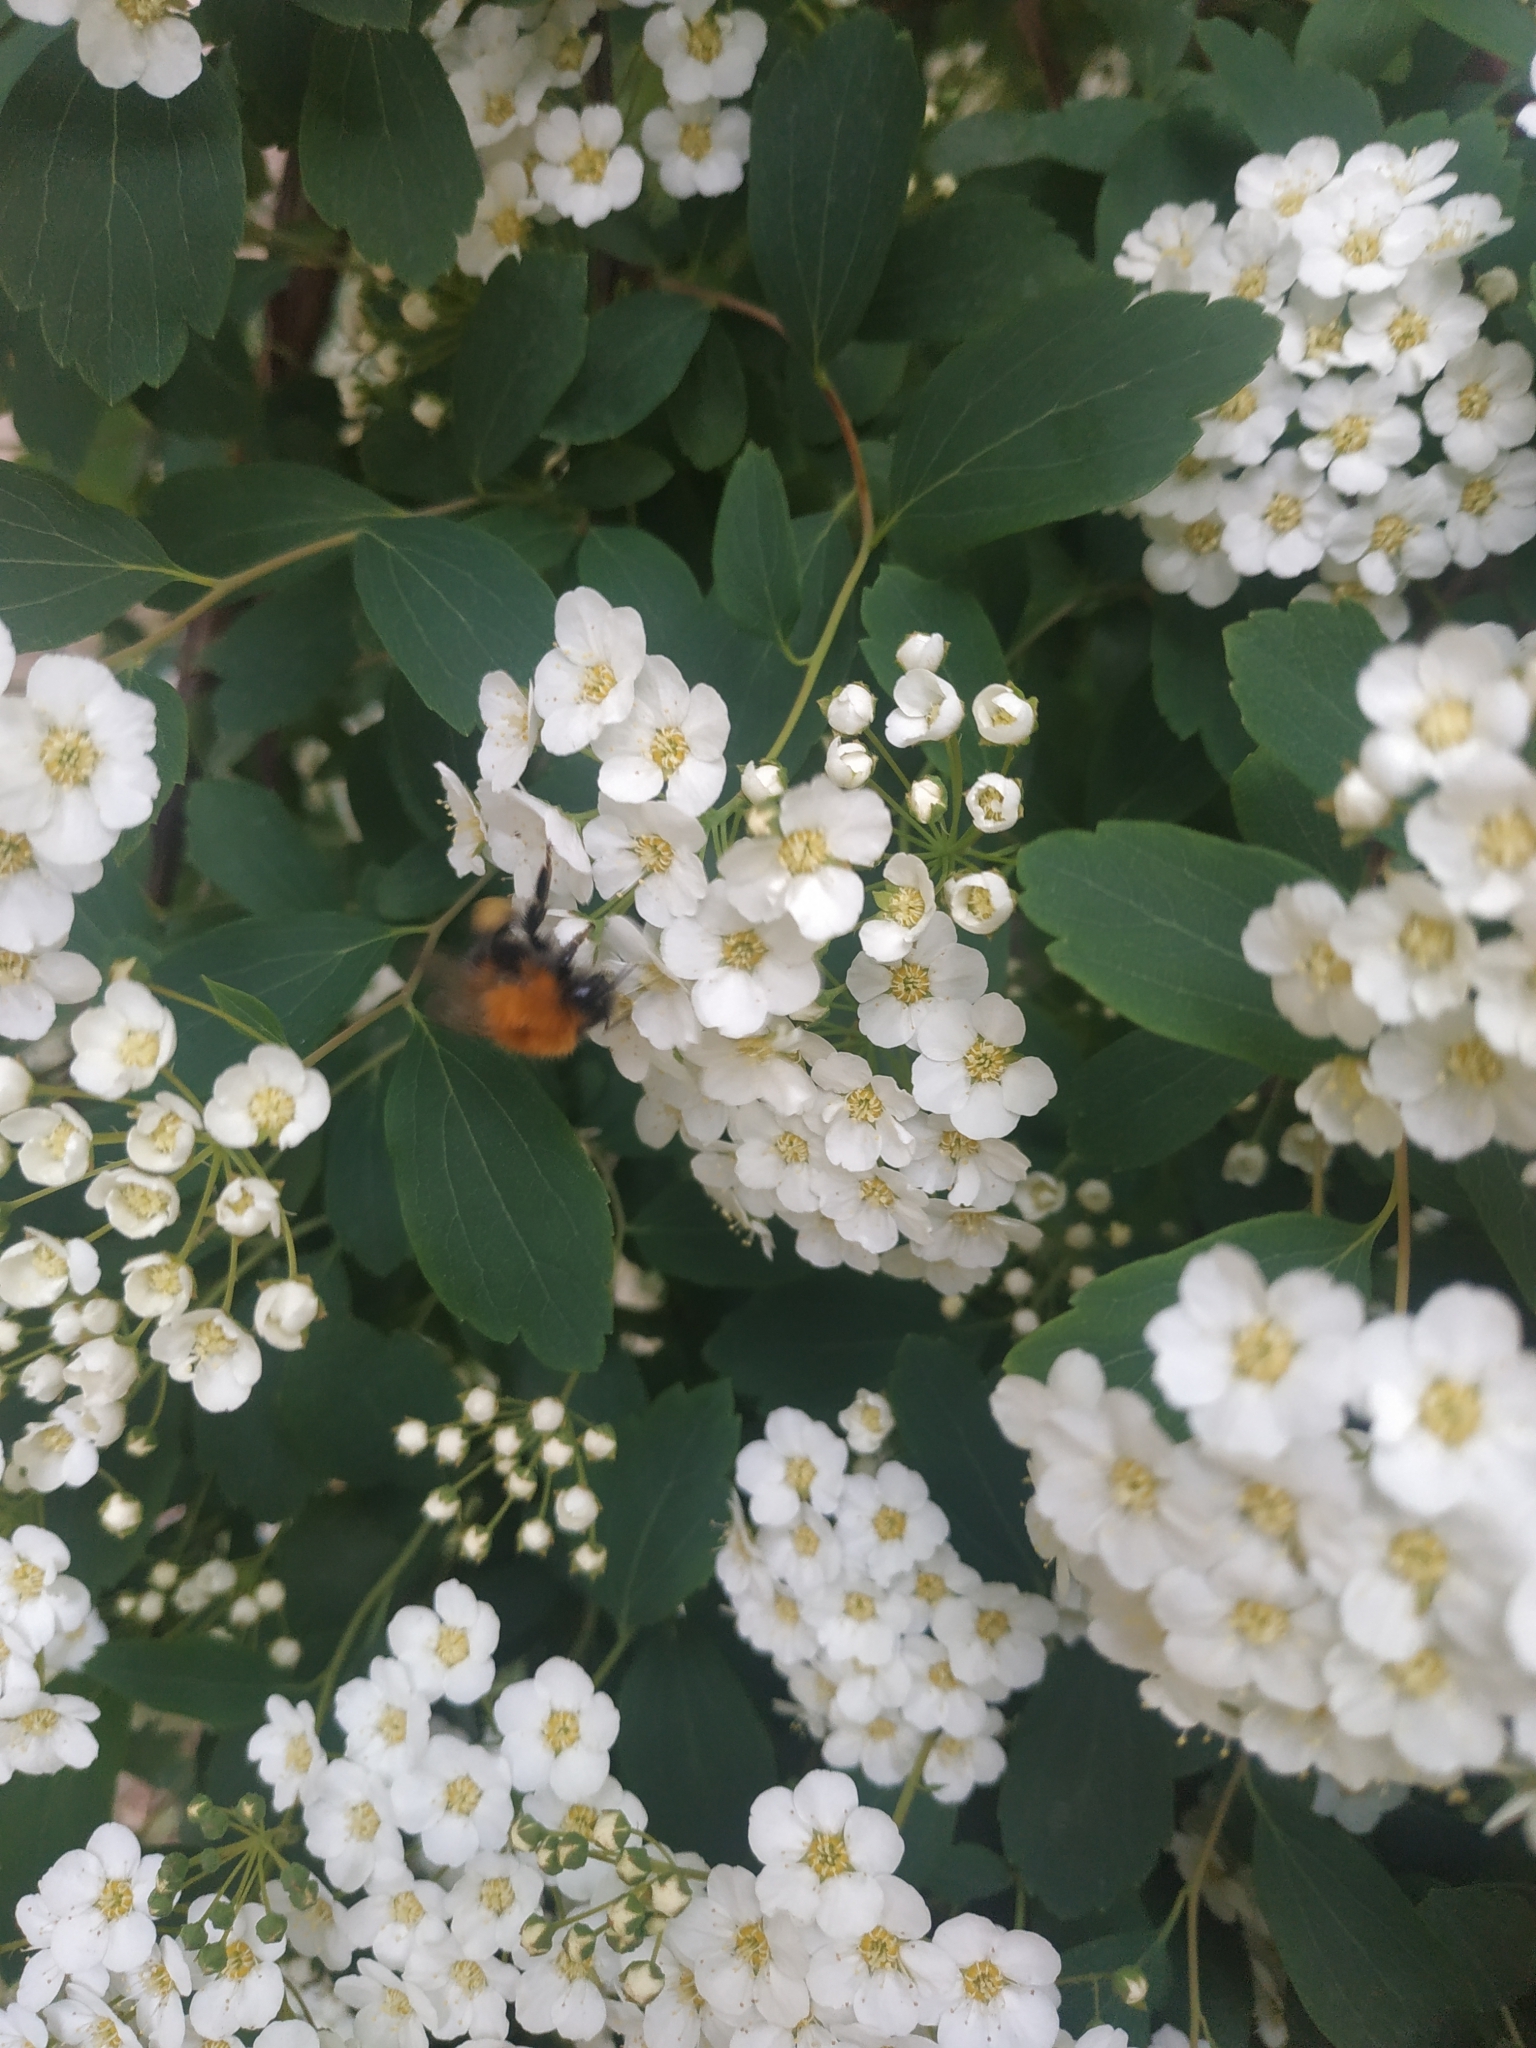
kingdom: Animalia
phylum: Arthropoda
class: Insecta
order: Hymenoptera
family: Apidae
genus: Bombus
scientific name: Bombus hypnorum
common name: New garden bumblebee
